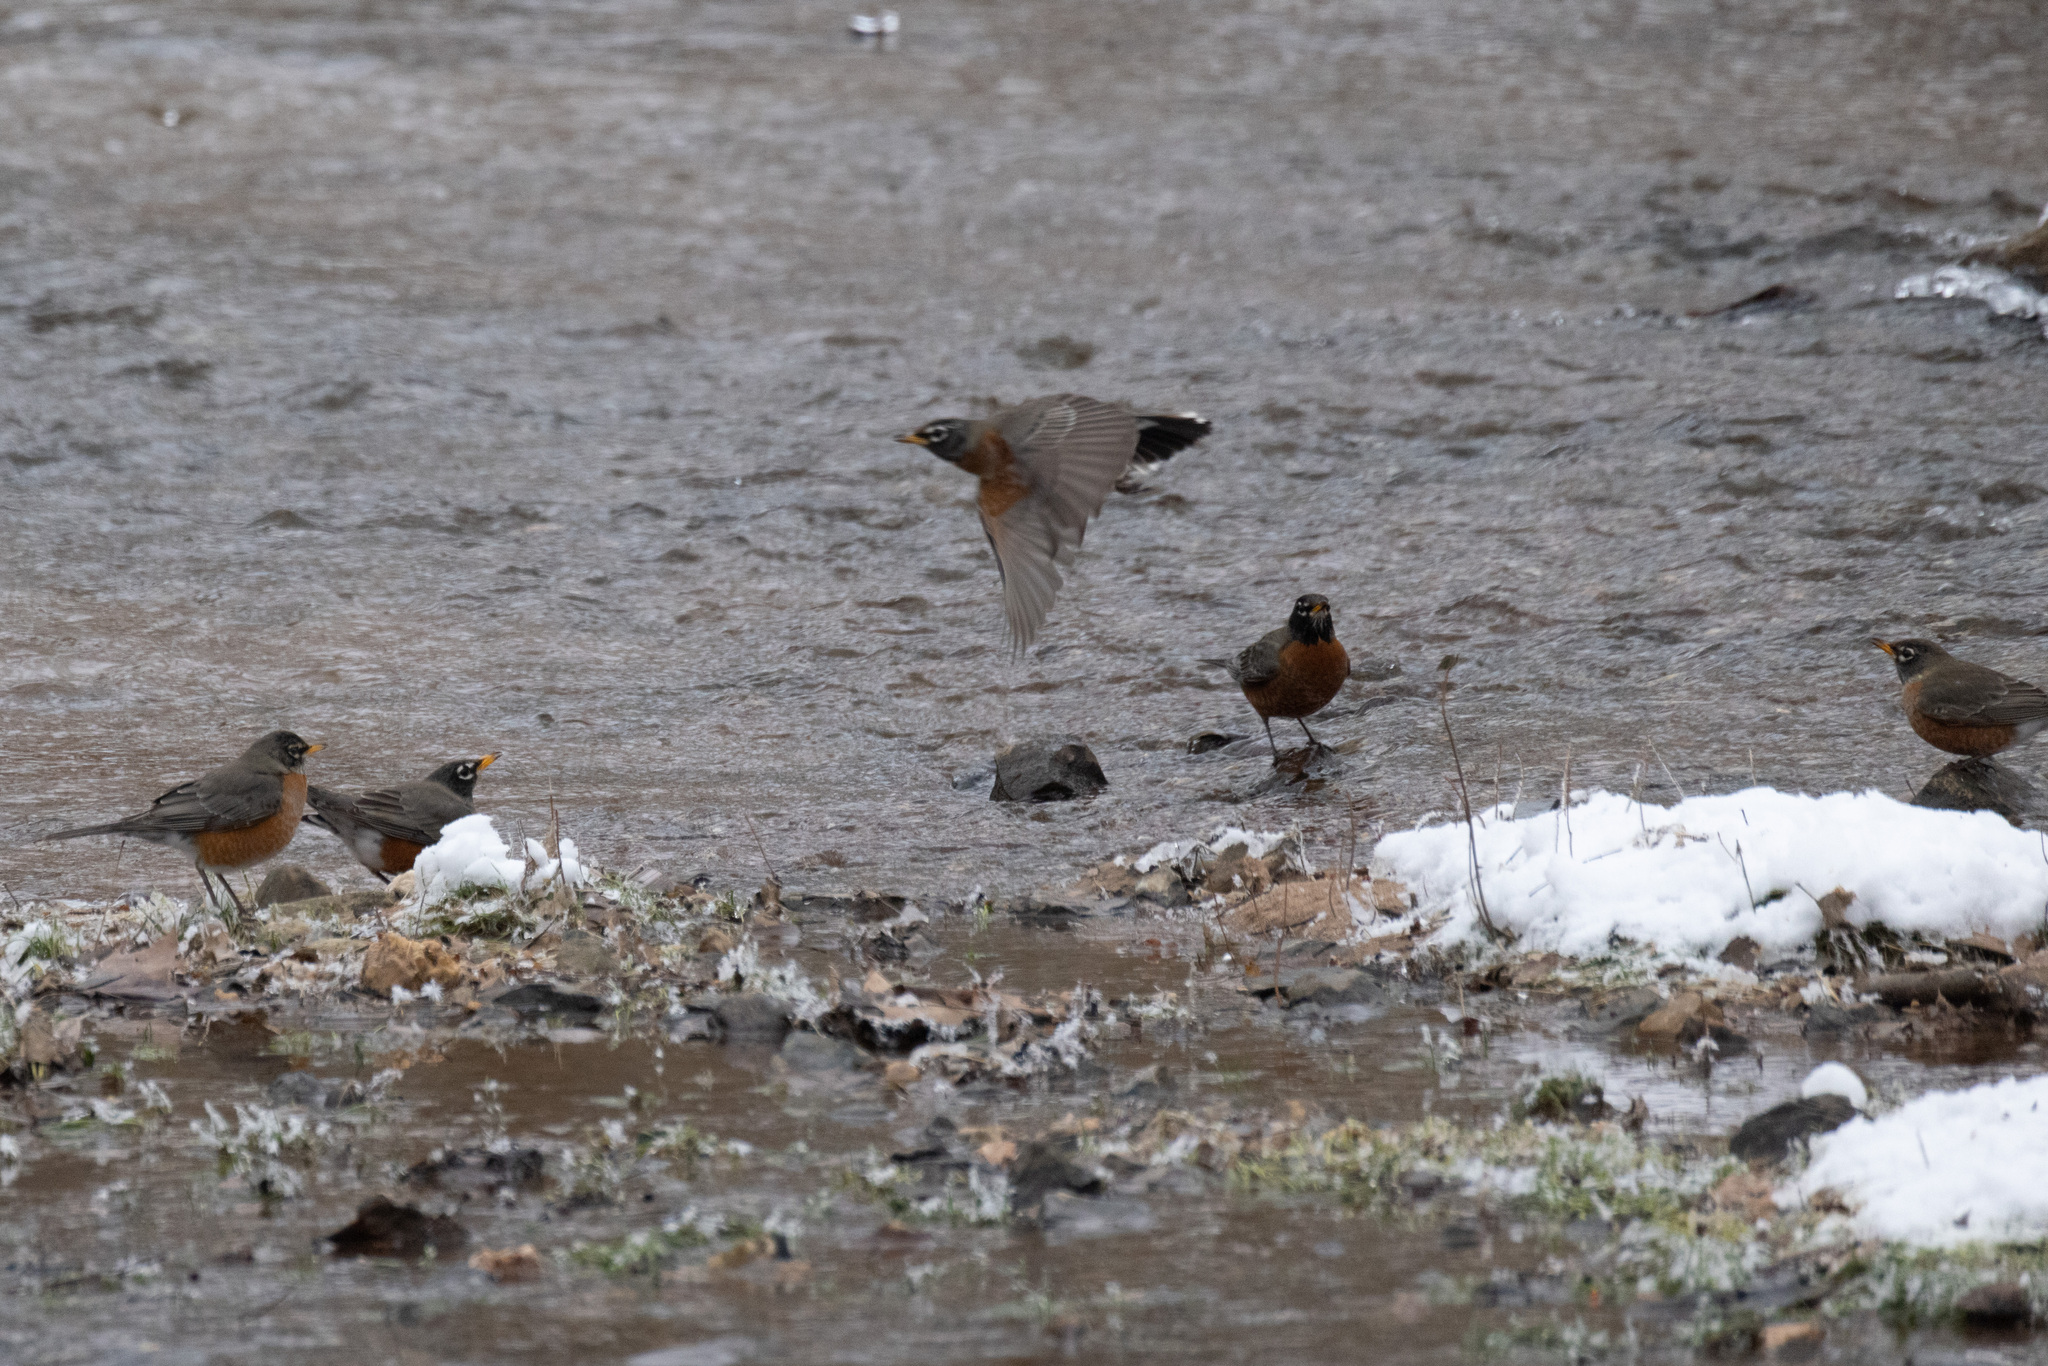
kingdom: Animalia
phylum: Chordata
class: Aves
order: Passeriformes
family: Turdidae
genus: Turdus
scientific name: Turdus migratorius
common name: American robin
